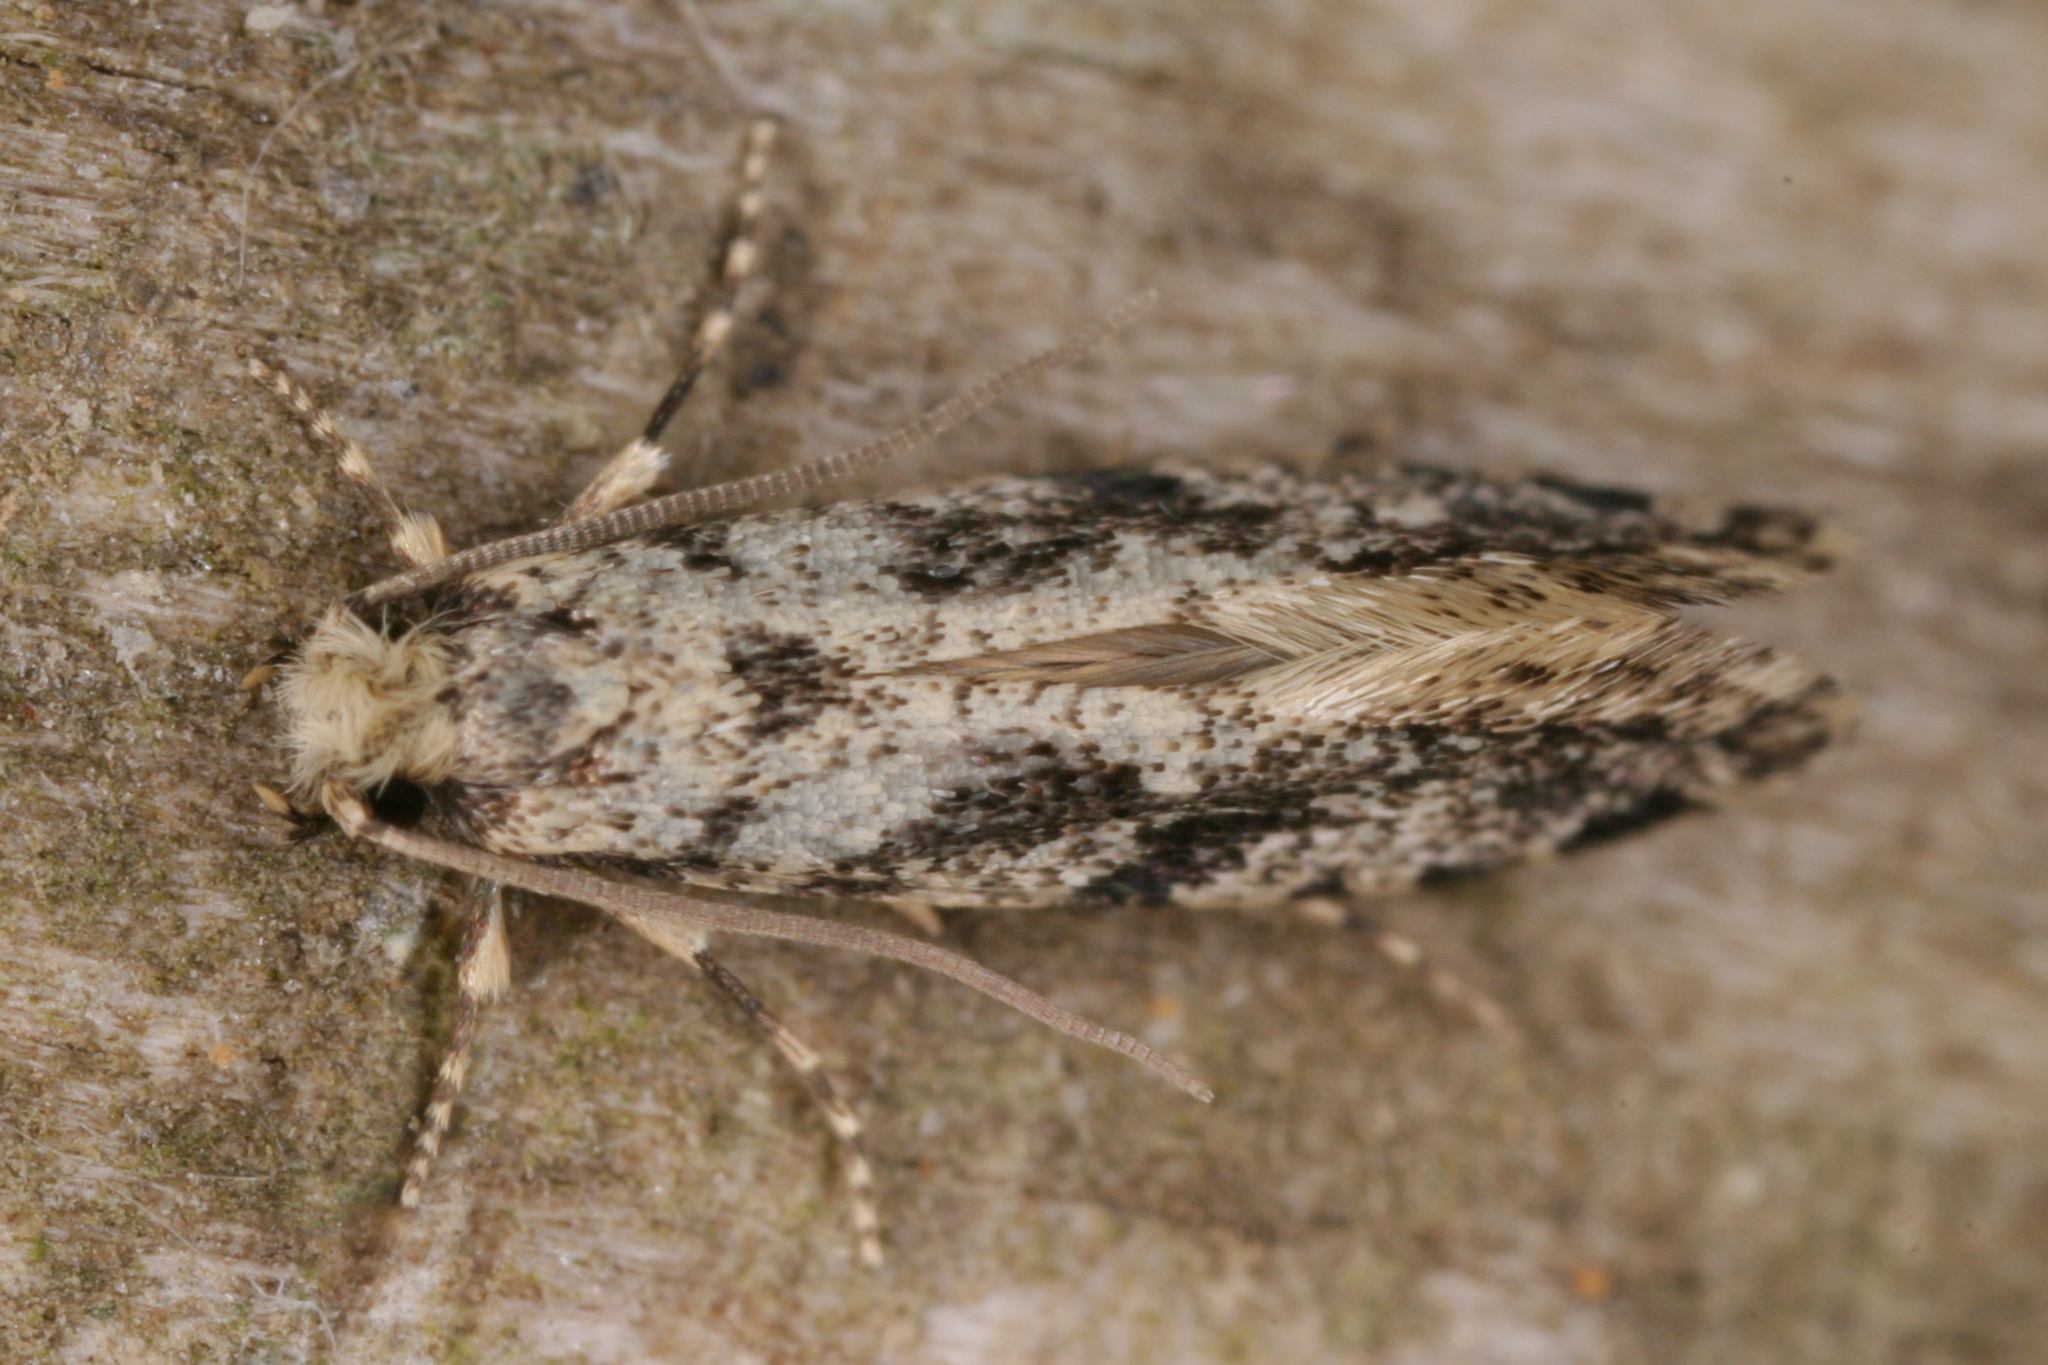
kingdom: Animalia
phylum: Arthropoda
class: Insecta
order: Lepidoptera
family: Tineidae
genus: Nemapogon
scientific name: Nemapogon granella
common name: European grain moth
